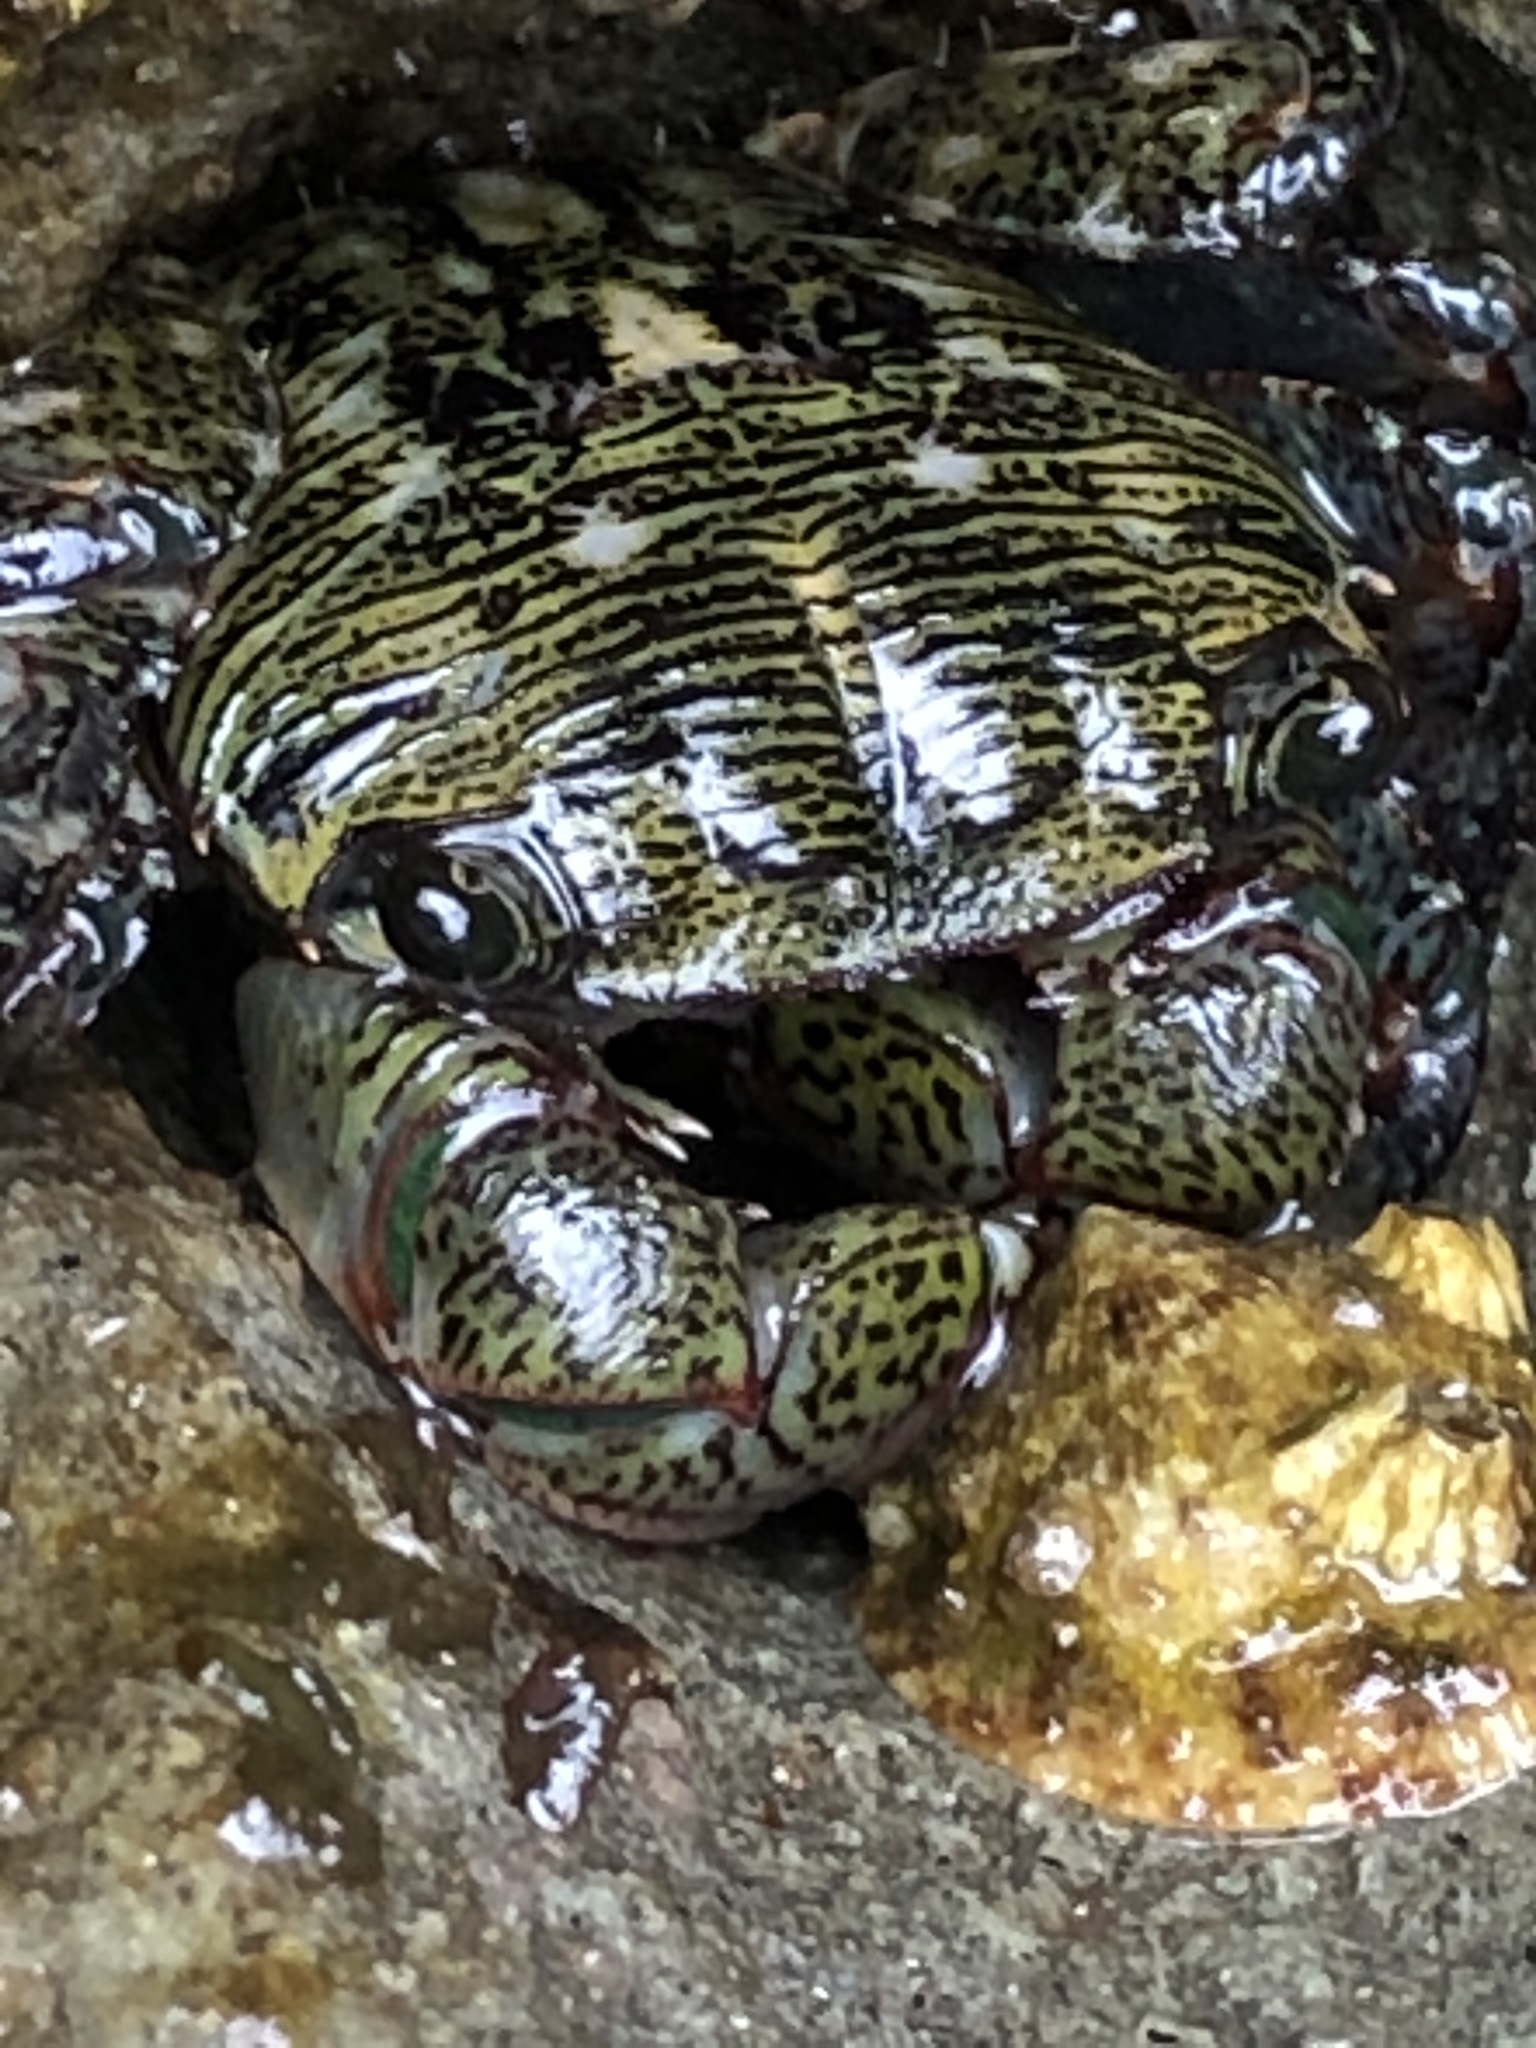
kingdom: Animalia
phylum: Arthropoda
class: Malacostraca
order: Decapoda
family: Grapsidae
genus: Pachygrapsus
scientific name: Pachygrapsus crassipes
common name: Striped shore crab
